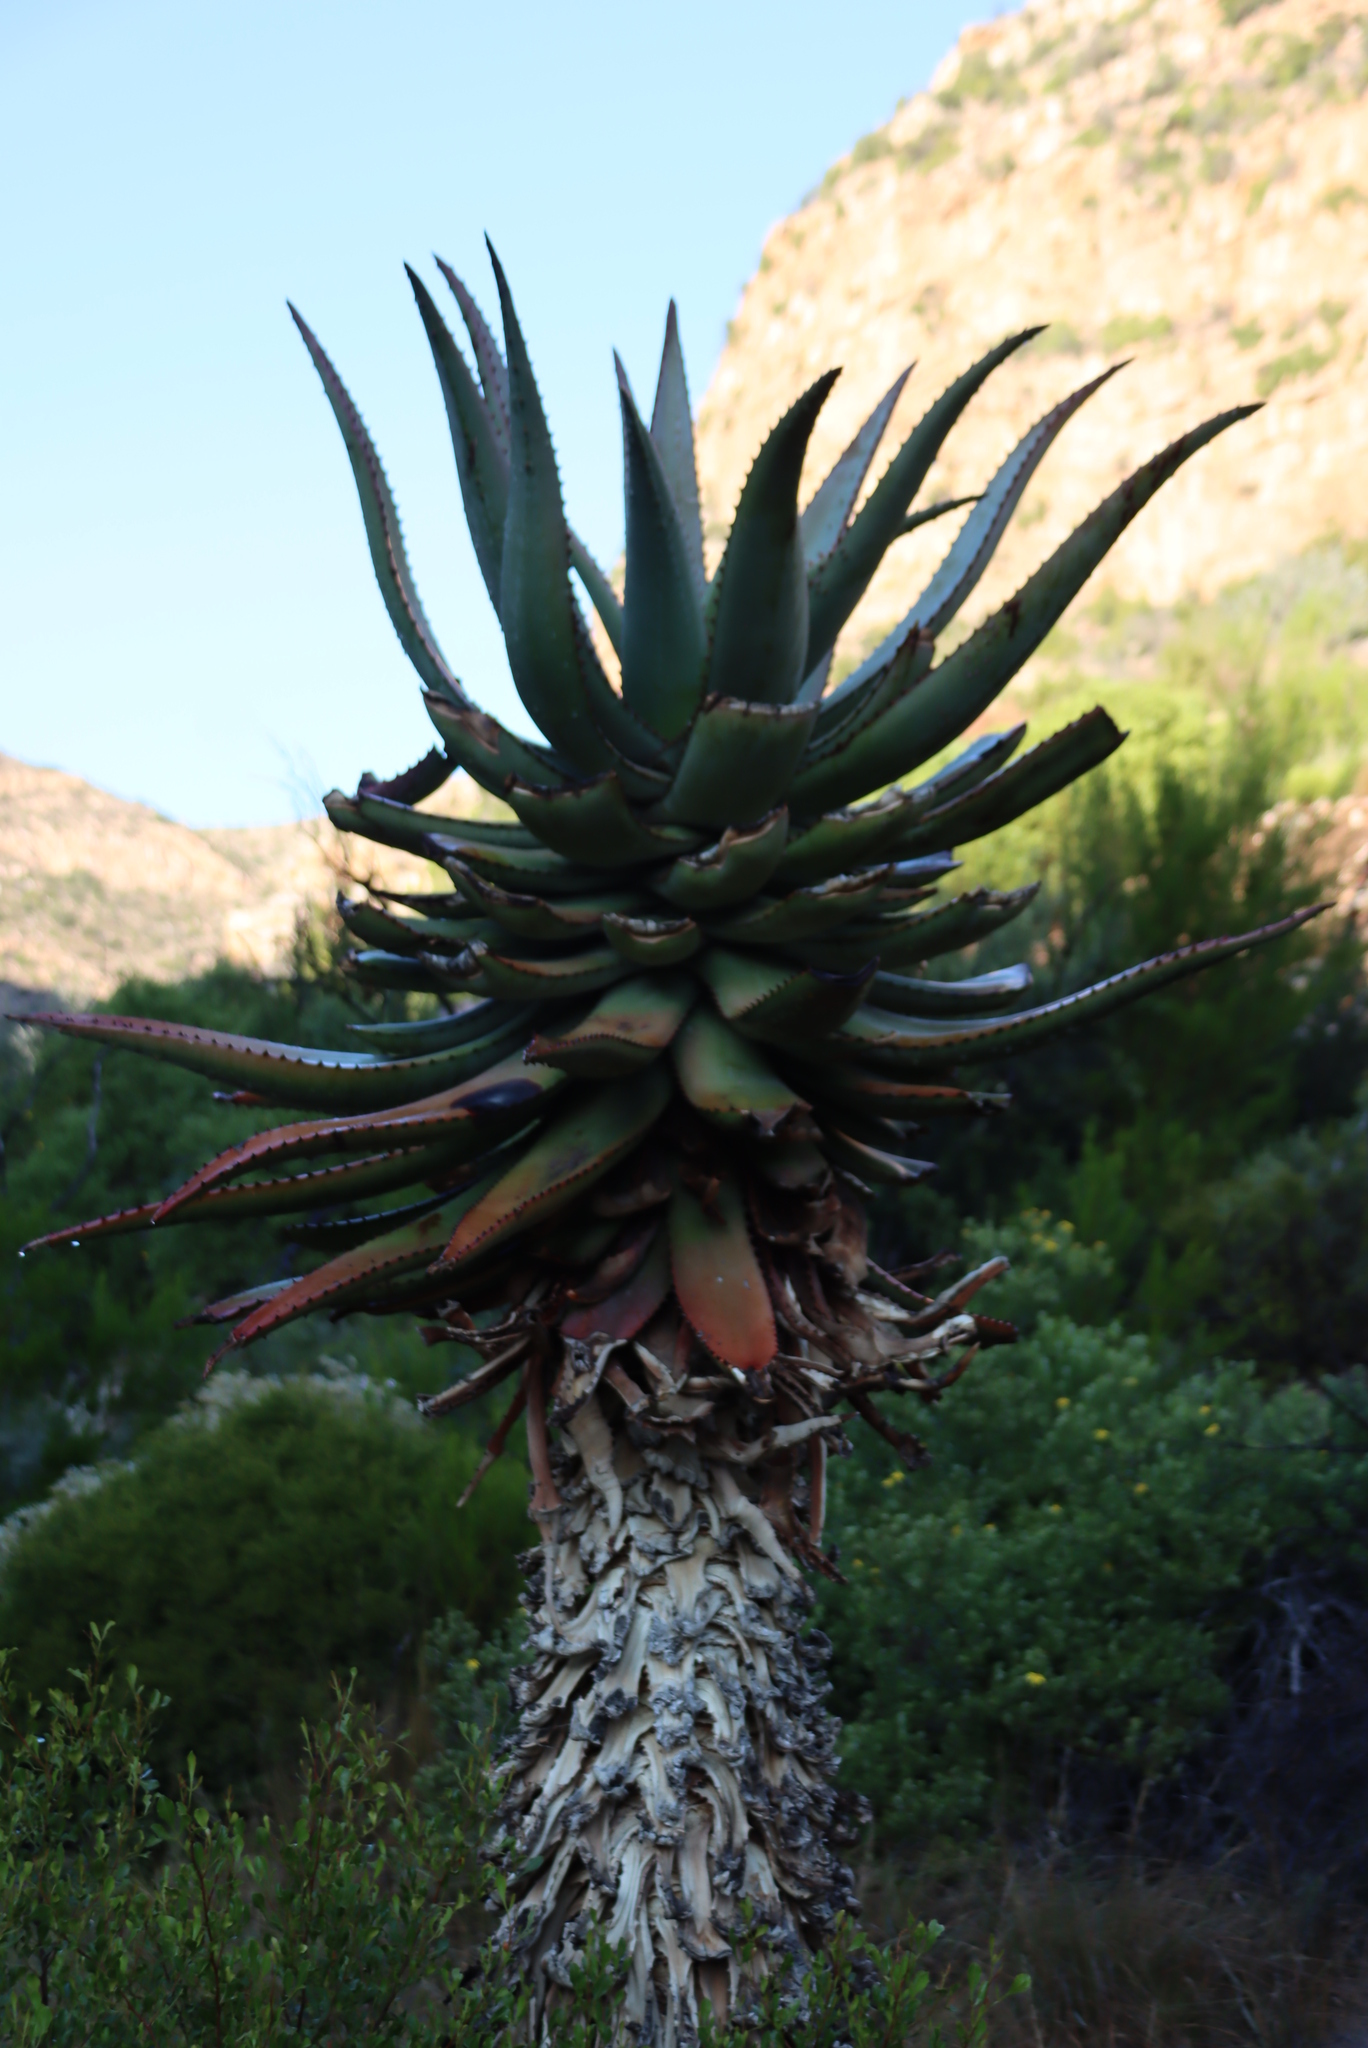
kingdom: Plantae
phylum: Tracheophyta
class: Liliopsida
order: Asparagales
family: Asphodelaceae
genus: Aloe
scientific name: Aloe ferox
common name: Bitter aloe
